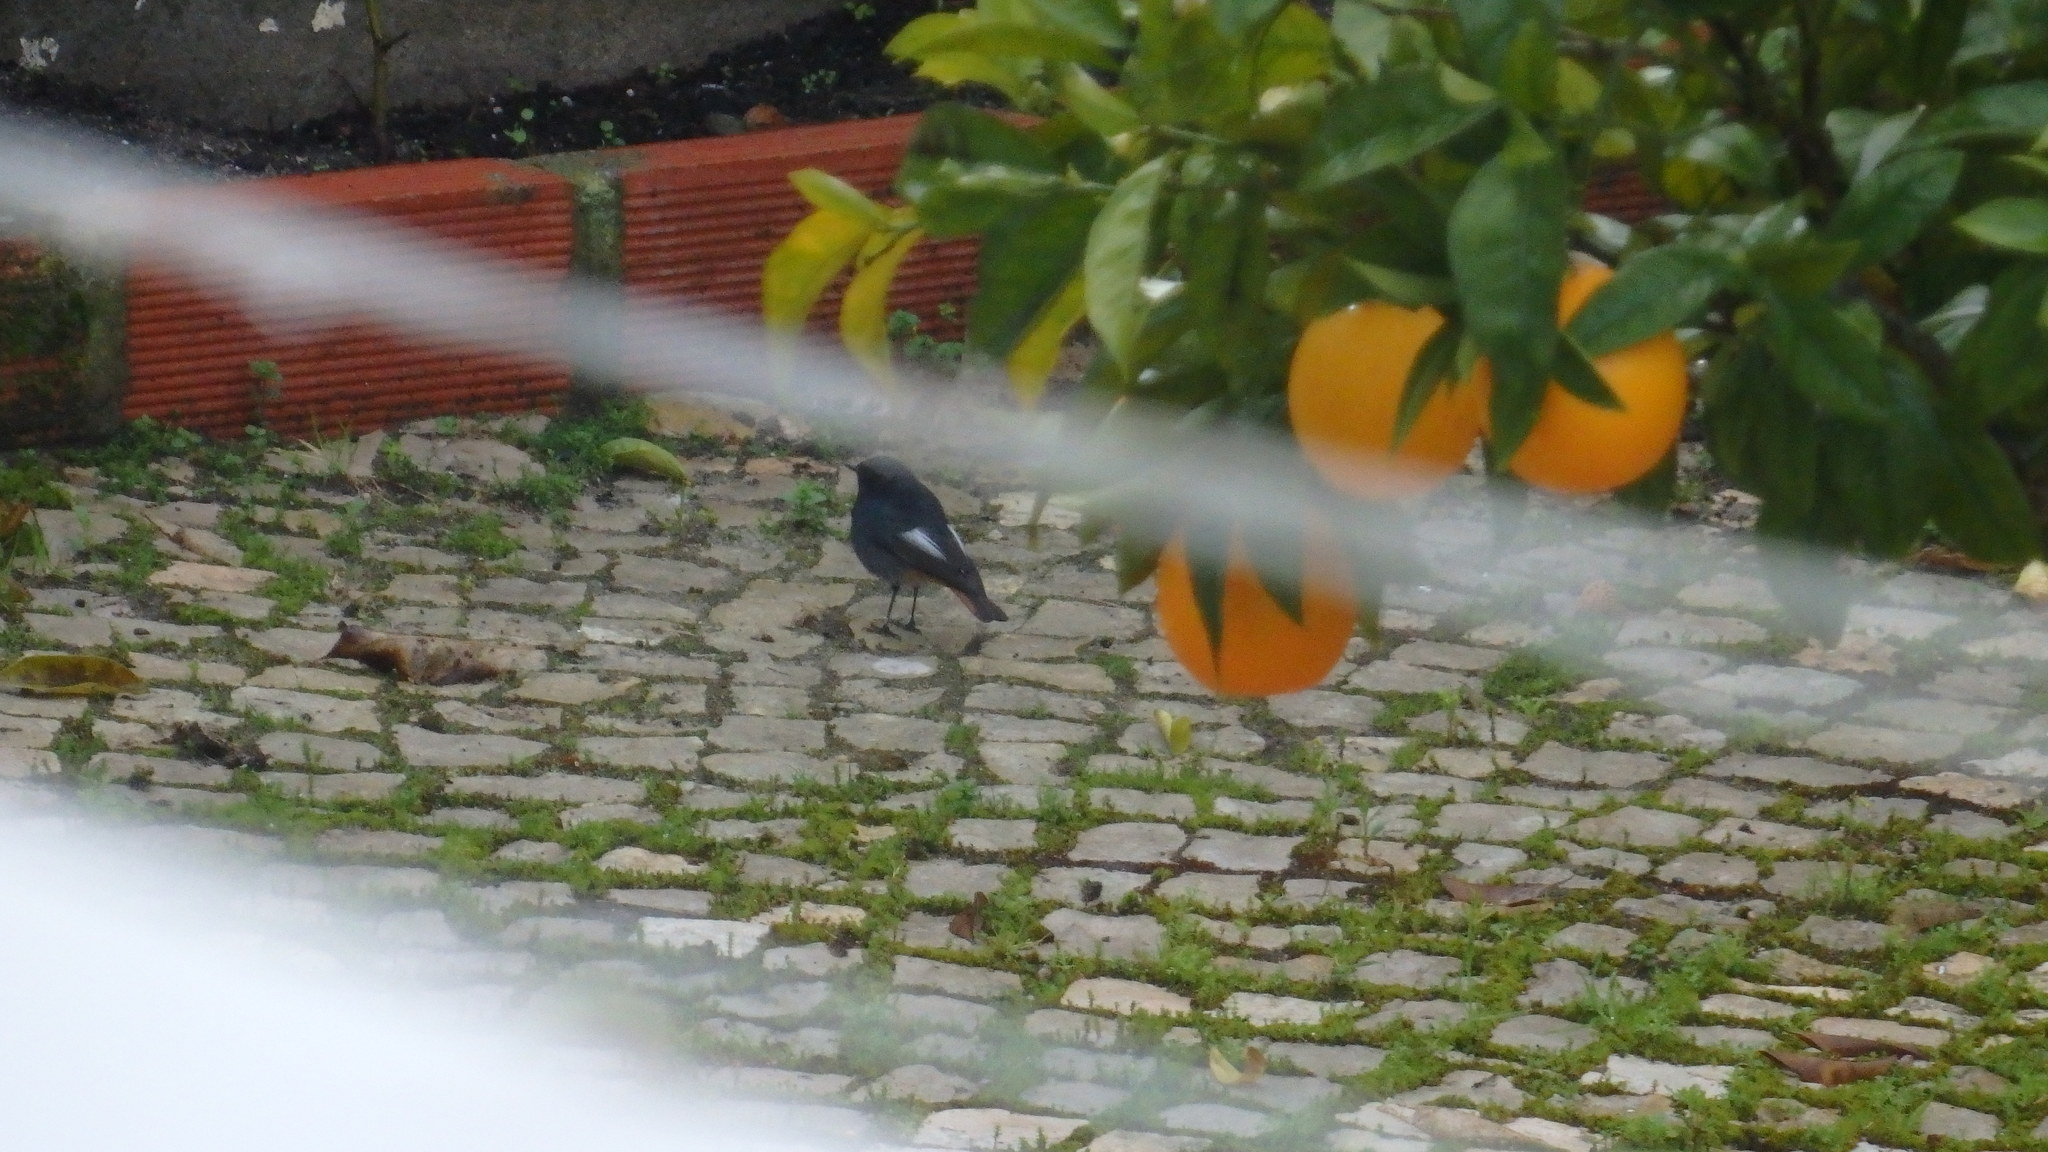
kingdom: Animalia
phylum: Chordata
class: Aves
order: Passeriformes
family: Muscicapidae
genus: Phoenicurus
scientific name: Phoenicurus ochruros
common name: Black redstart
